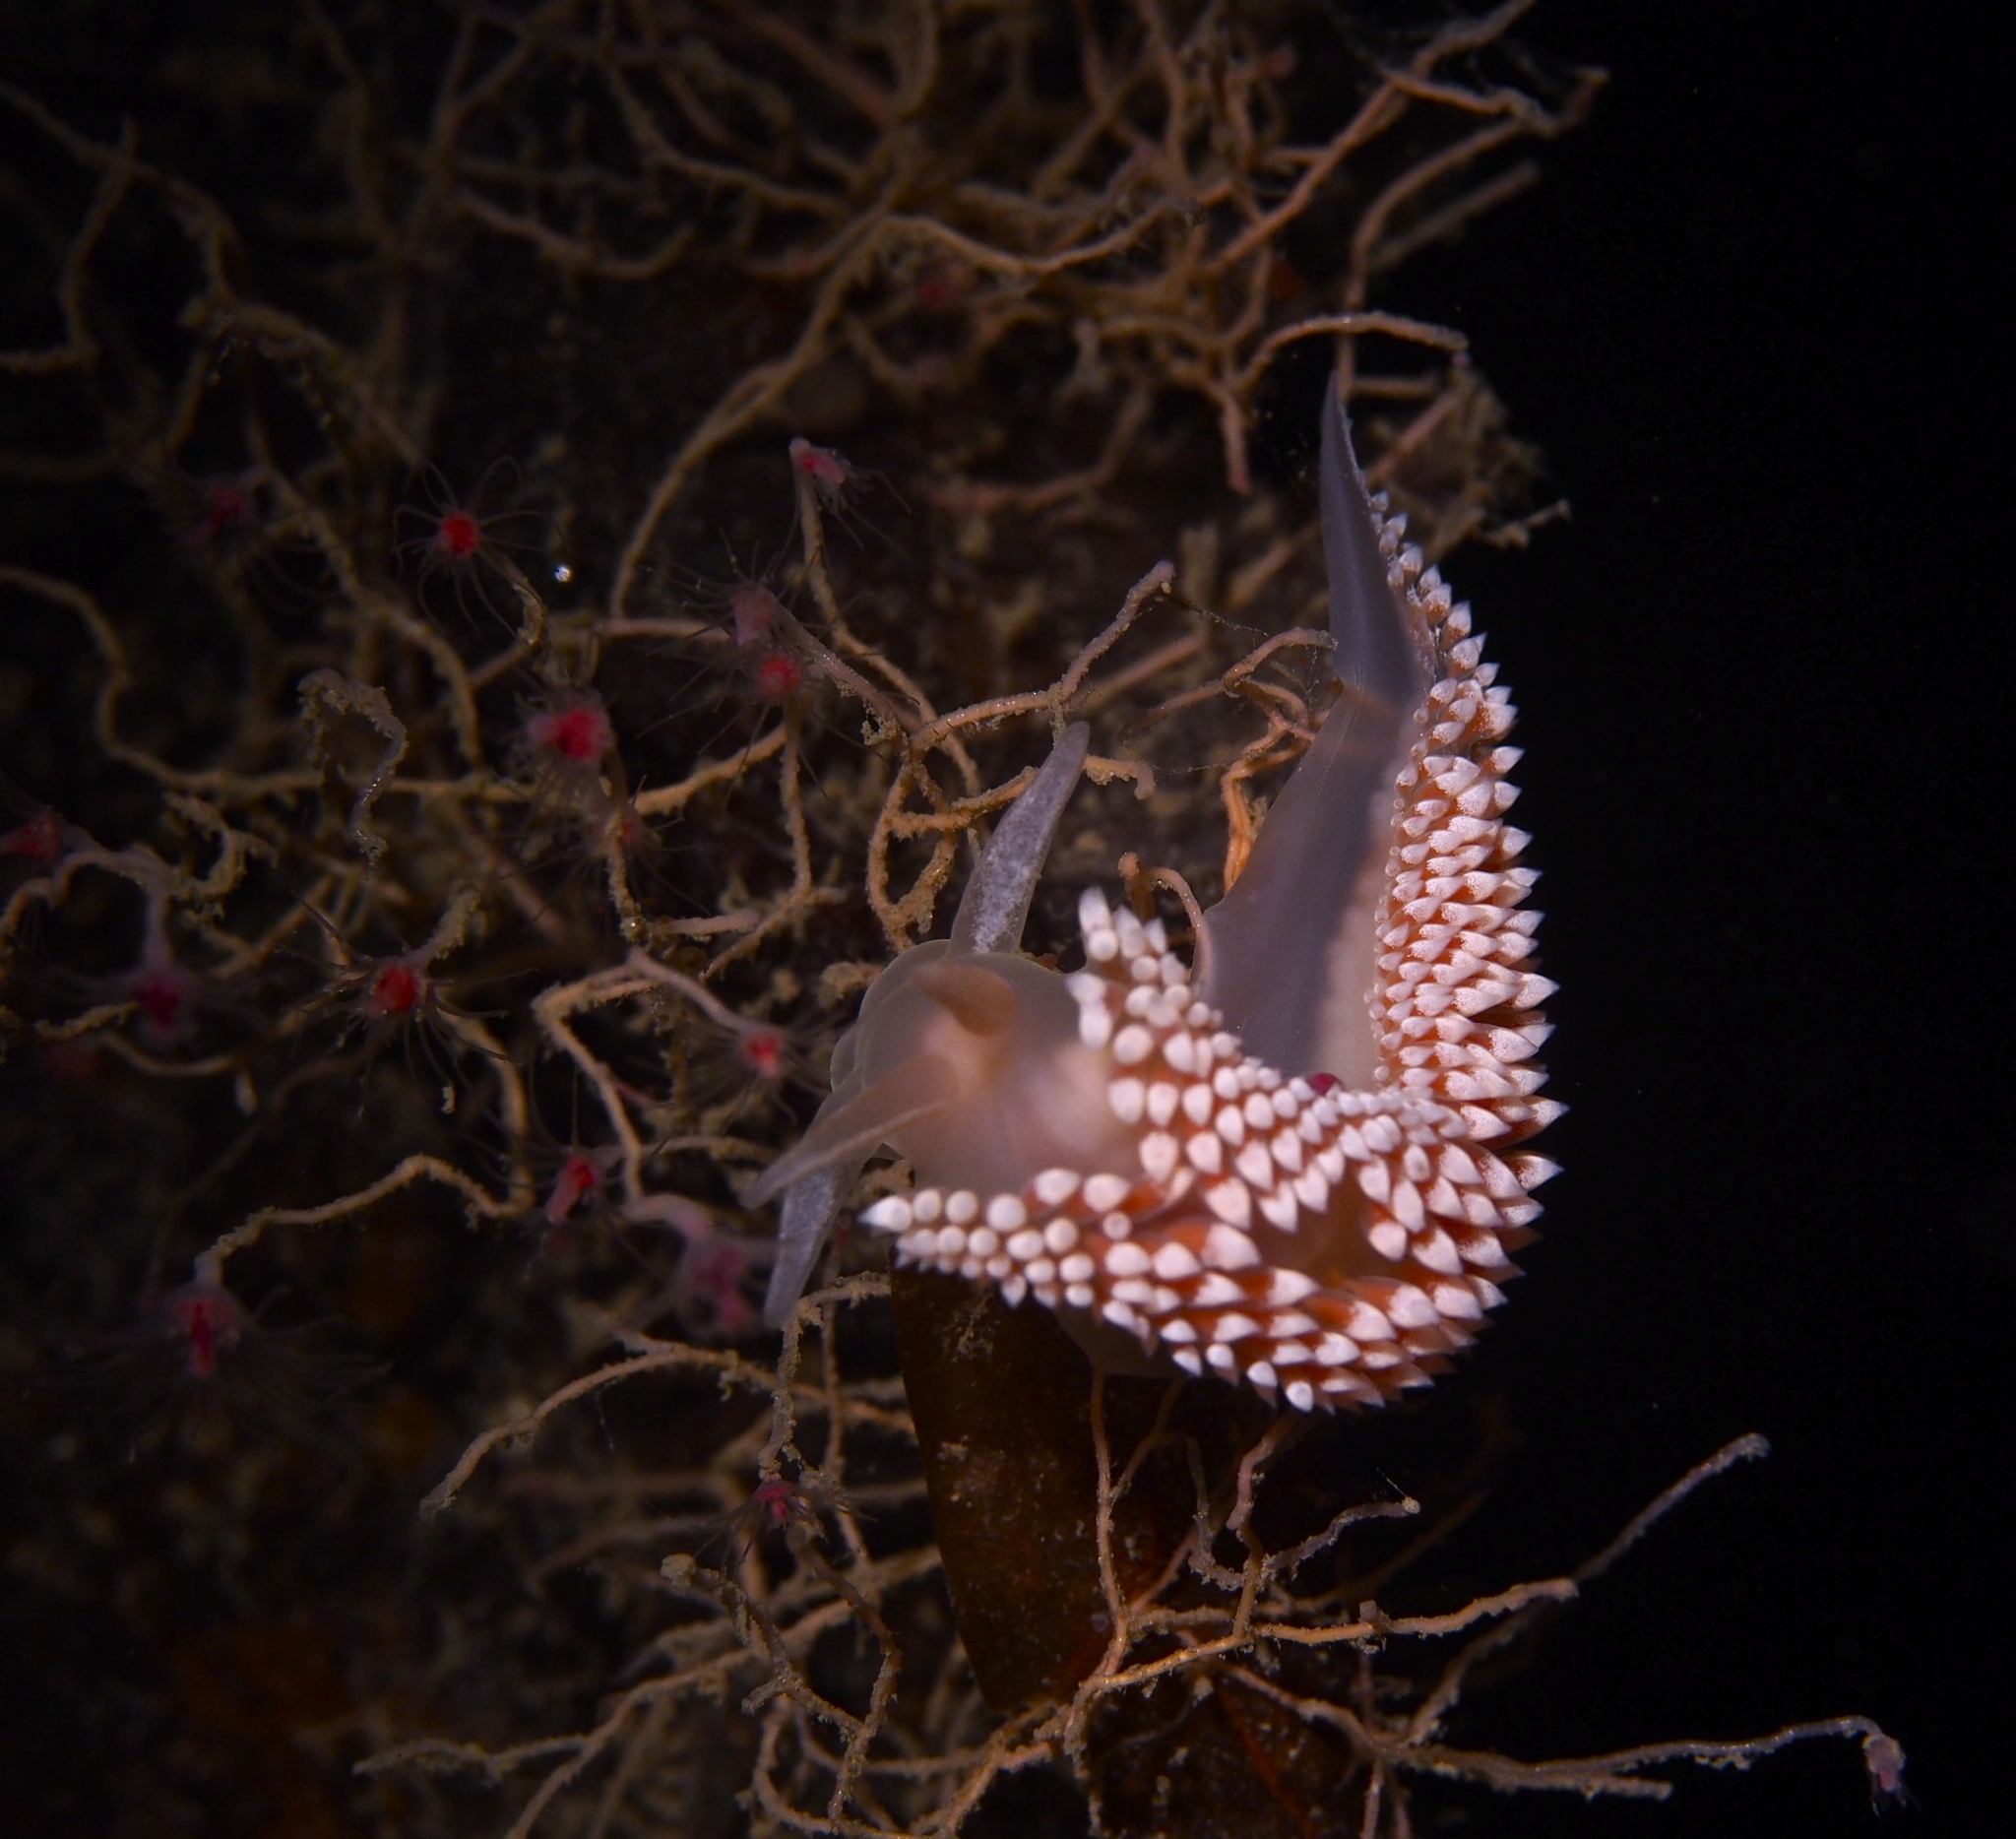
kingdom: Animalia
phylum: Mollusca
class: Gastropoda
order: Nudibranchia
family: Coryphellidae
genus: Coryphella
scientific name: Coryphella verrucosa
